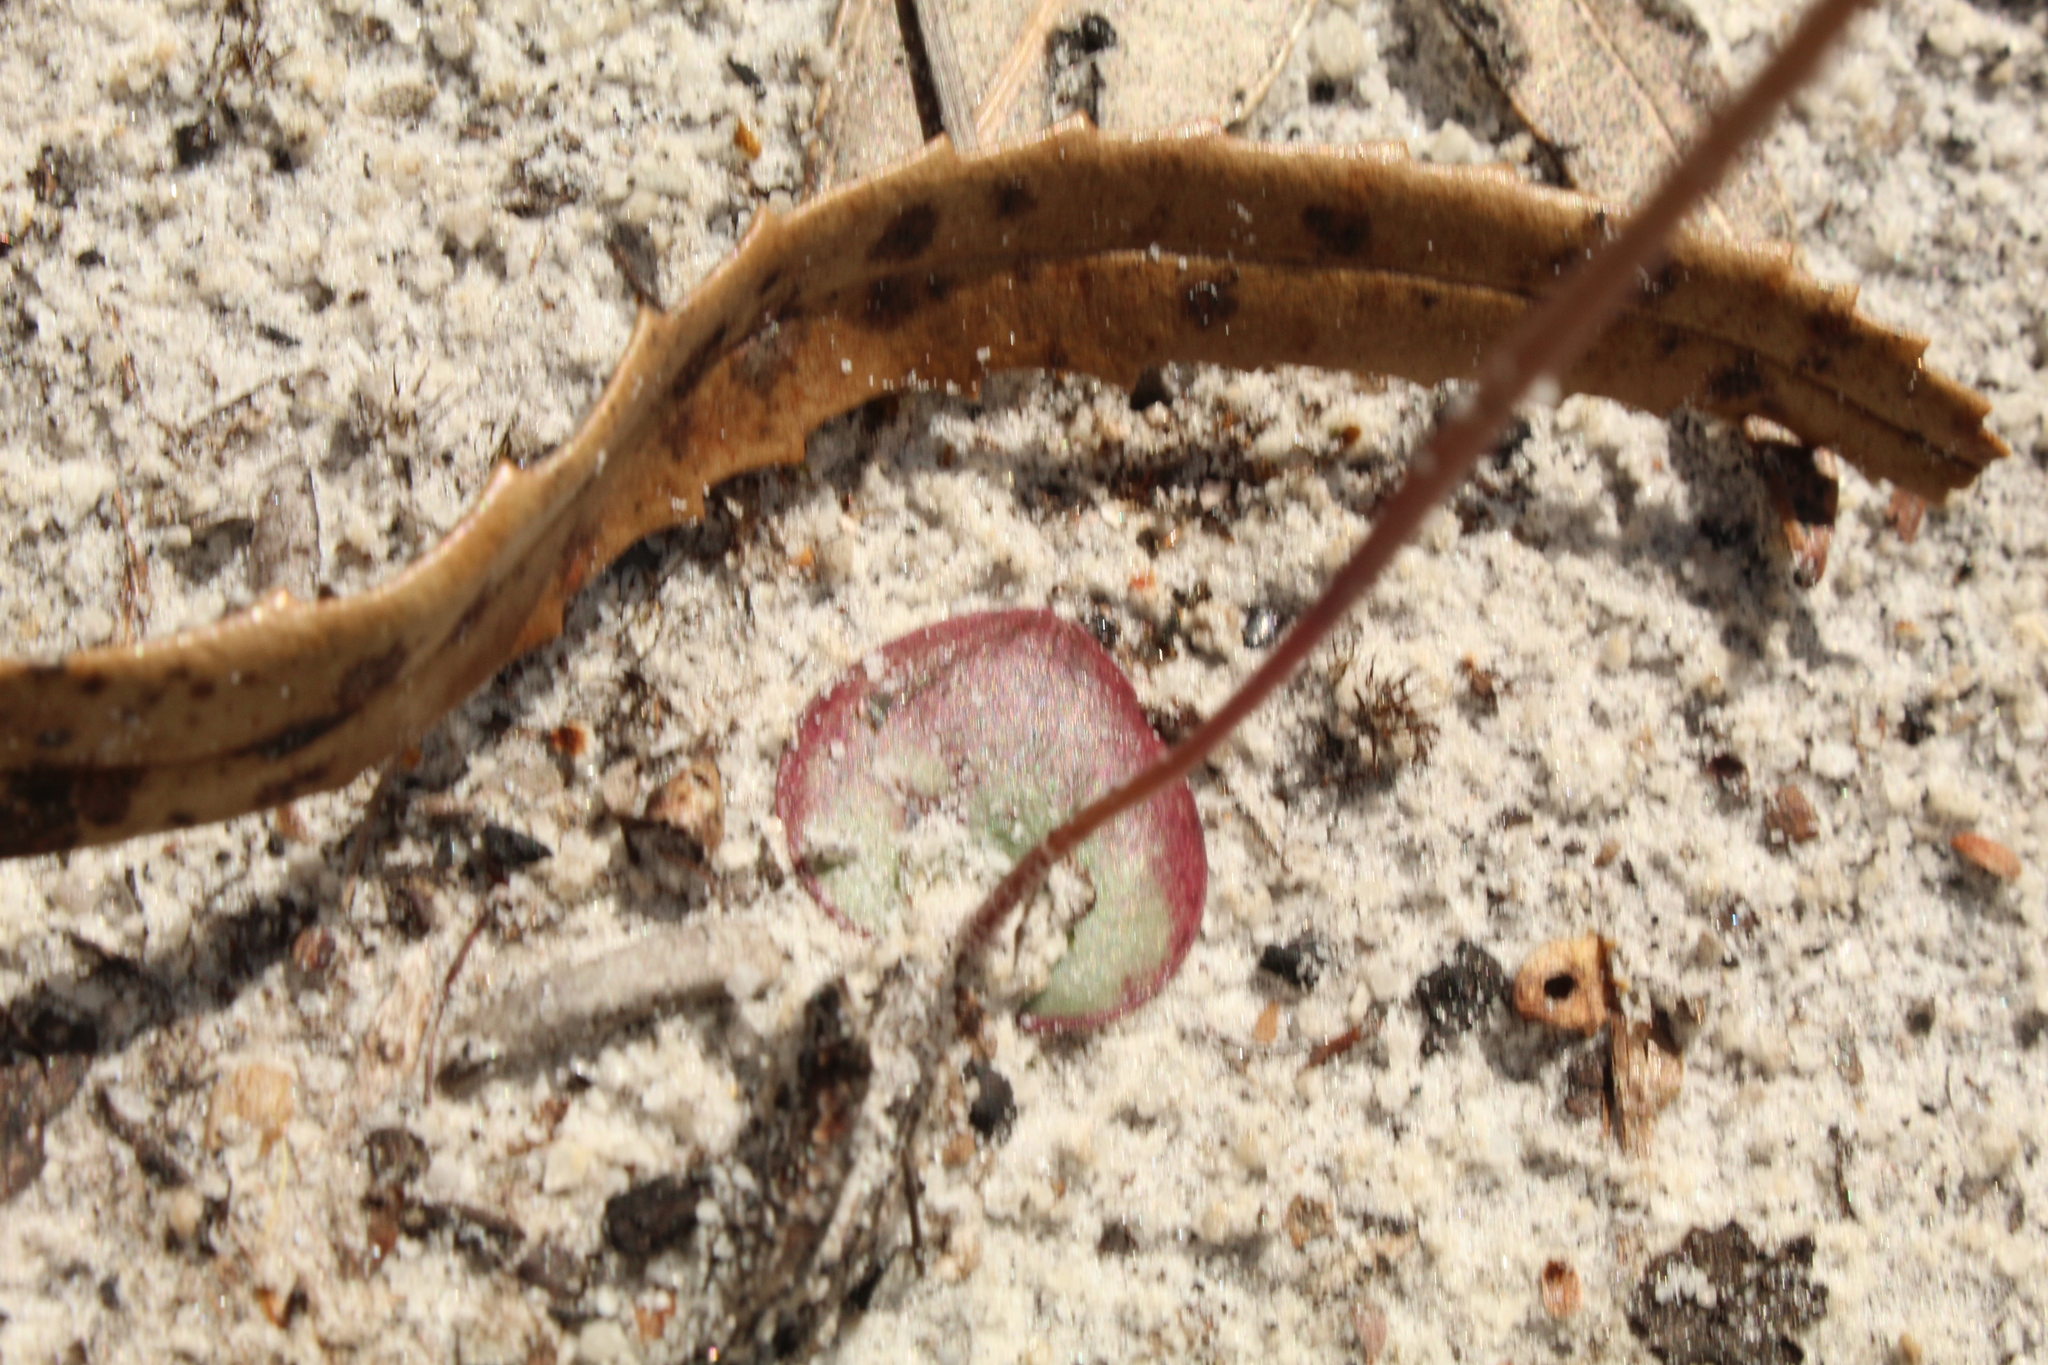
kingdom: Plantae
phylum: Tracheophyta
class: Liliopsida
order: Asparagales
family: Orchidaceae
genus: Drakaea
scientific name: Drakaea livida
